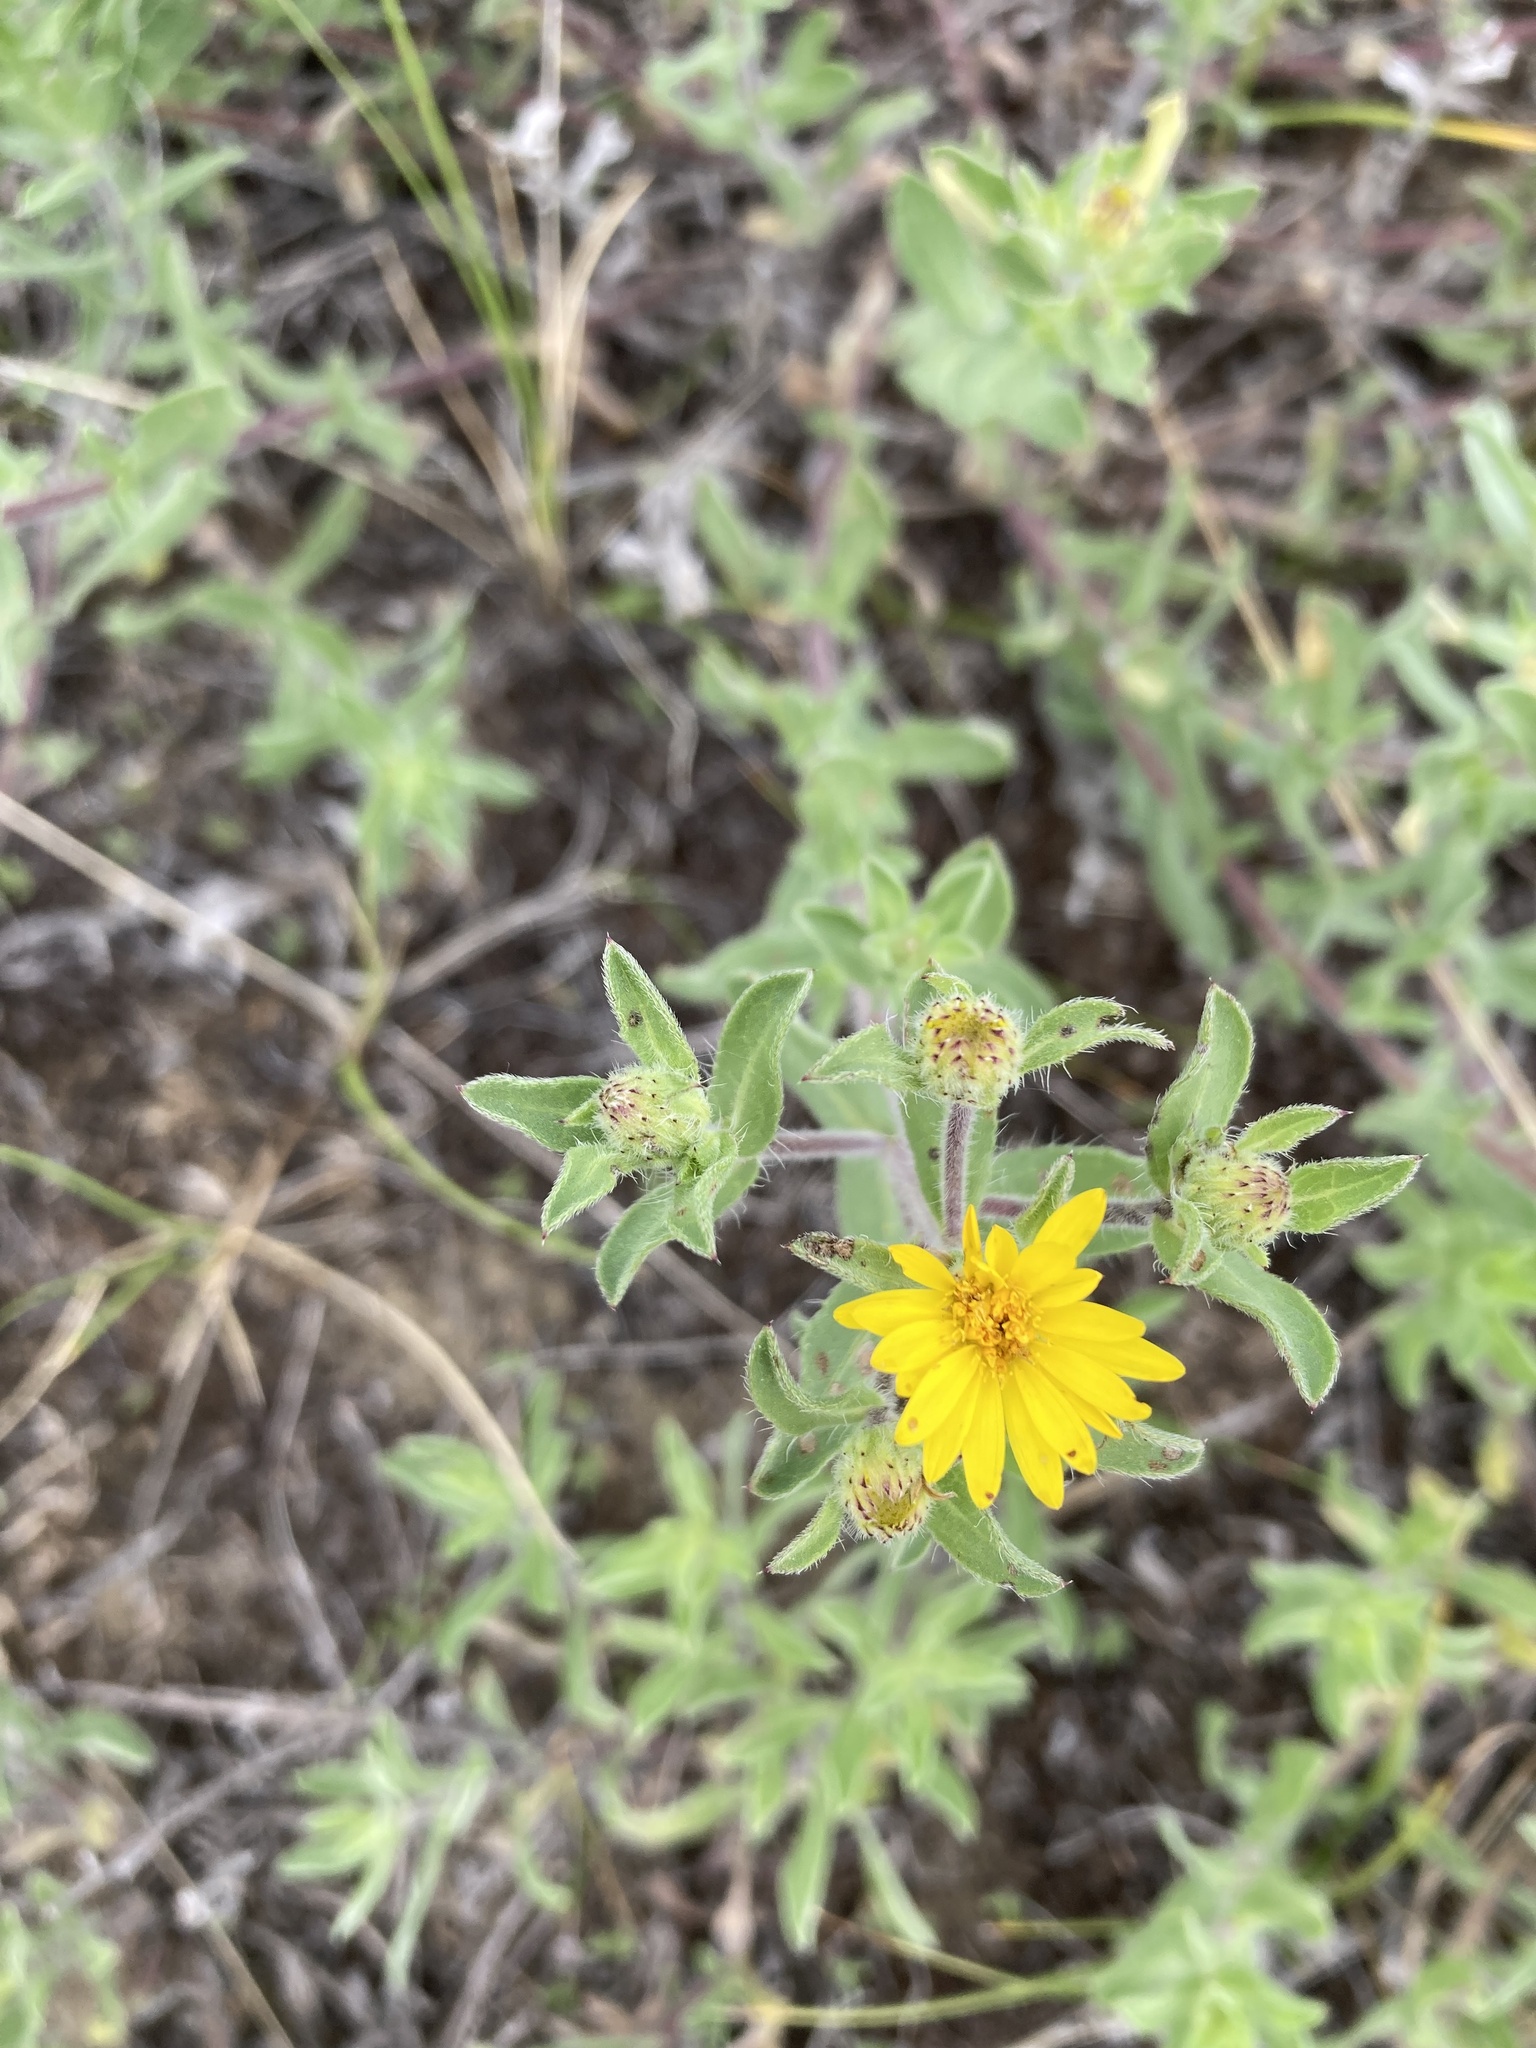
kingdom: Plantae
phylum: Tracheophyta
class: Magnoliopsida
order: Asterales
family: Asteraceae
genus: Heterotheca
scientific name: Heterotheca villosa
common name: Hairy false goldenaster
